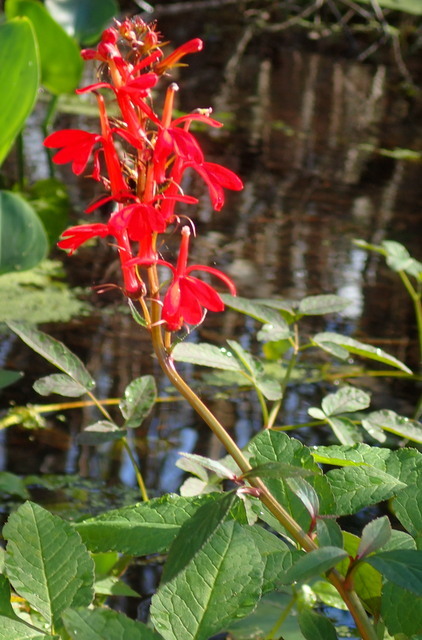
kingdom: Plantae
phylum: Tracheophyta
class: Magnoliopsida
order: Asterales
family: Campanulaceae
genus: Lobelia
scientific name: Lobelia cardinalis
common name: Cardinal flower
